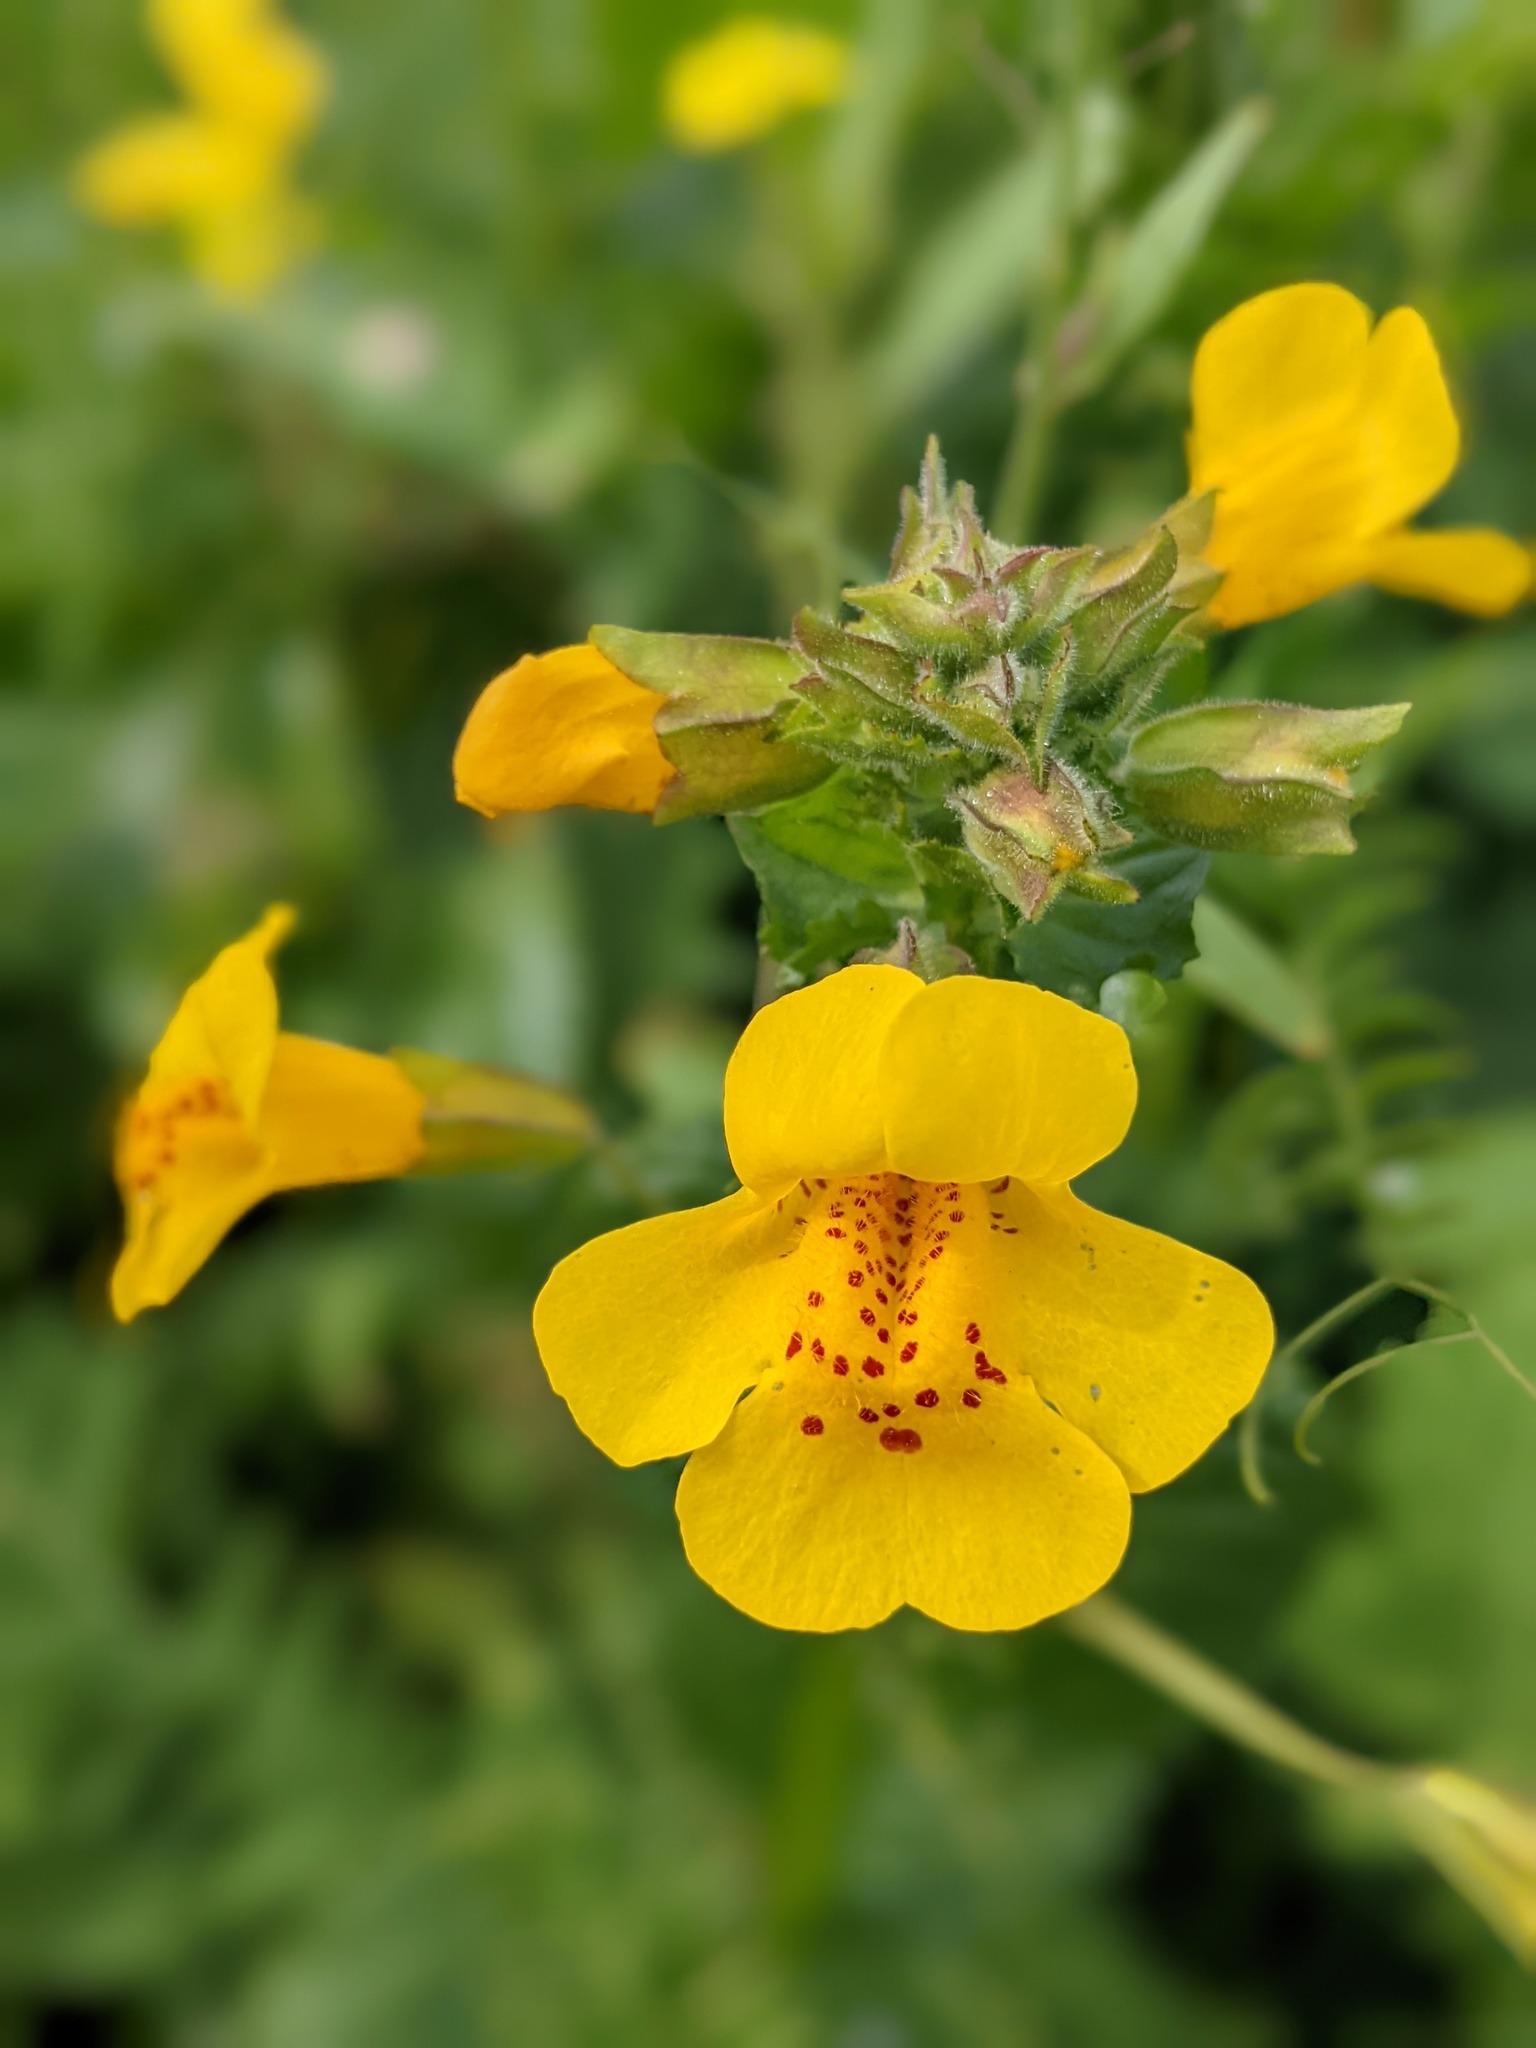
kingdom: Plantae
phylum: Tracheophyta
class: Magnoliopsida
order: Lamiales
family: Phrymaceae
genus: Erythranthe
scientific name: Erythranthe grandis
